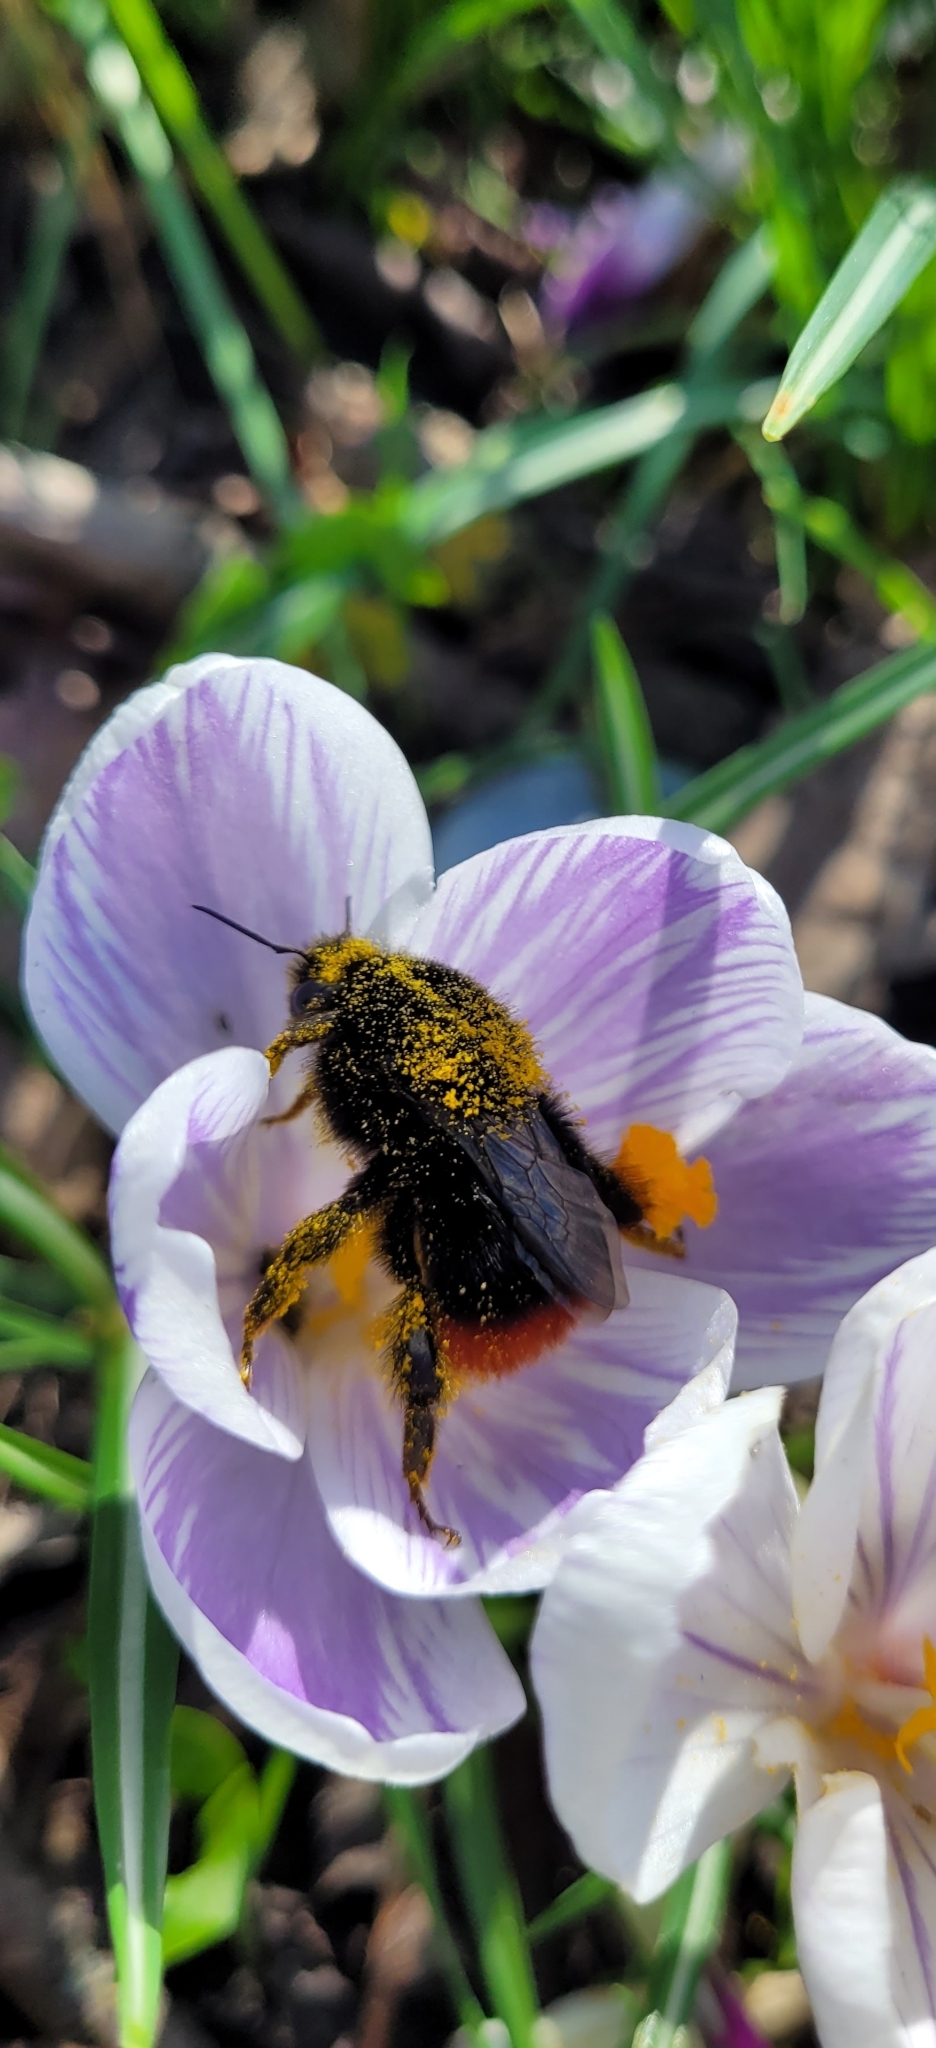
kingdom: Animalia
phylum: Arthropoda
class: Insecta
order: Hymenoptera
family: Apidae
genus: Bombus
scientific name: Bombus lapidarius
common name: Large red-tailed humble-bee
